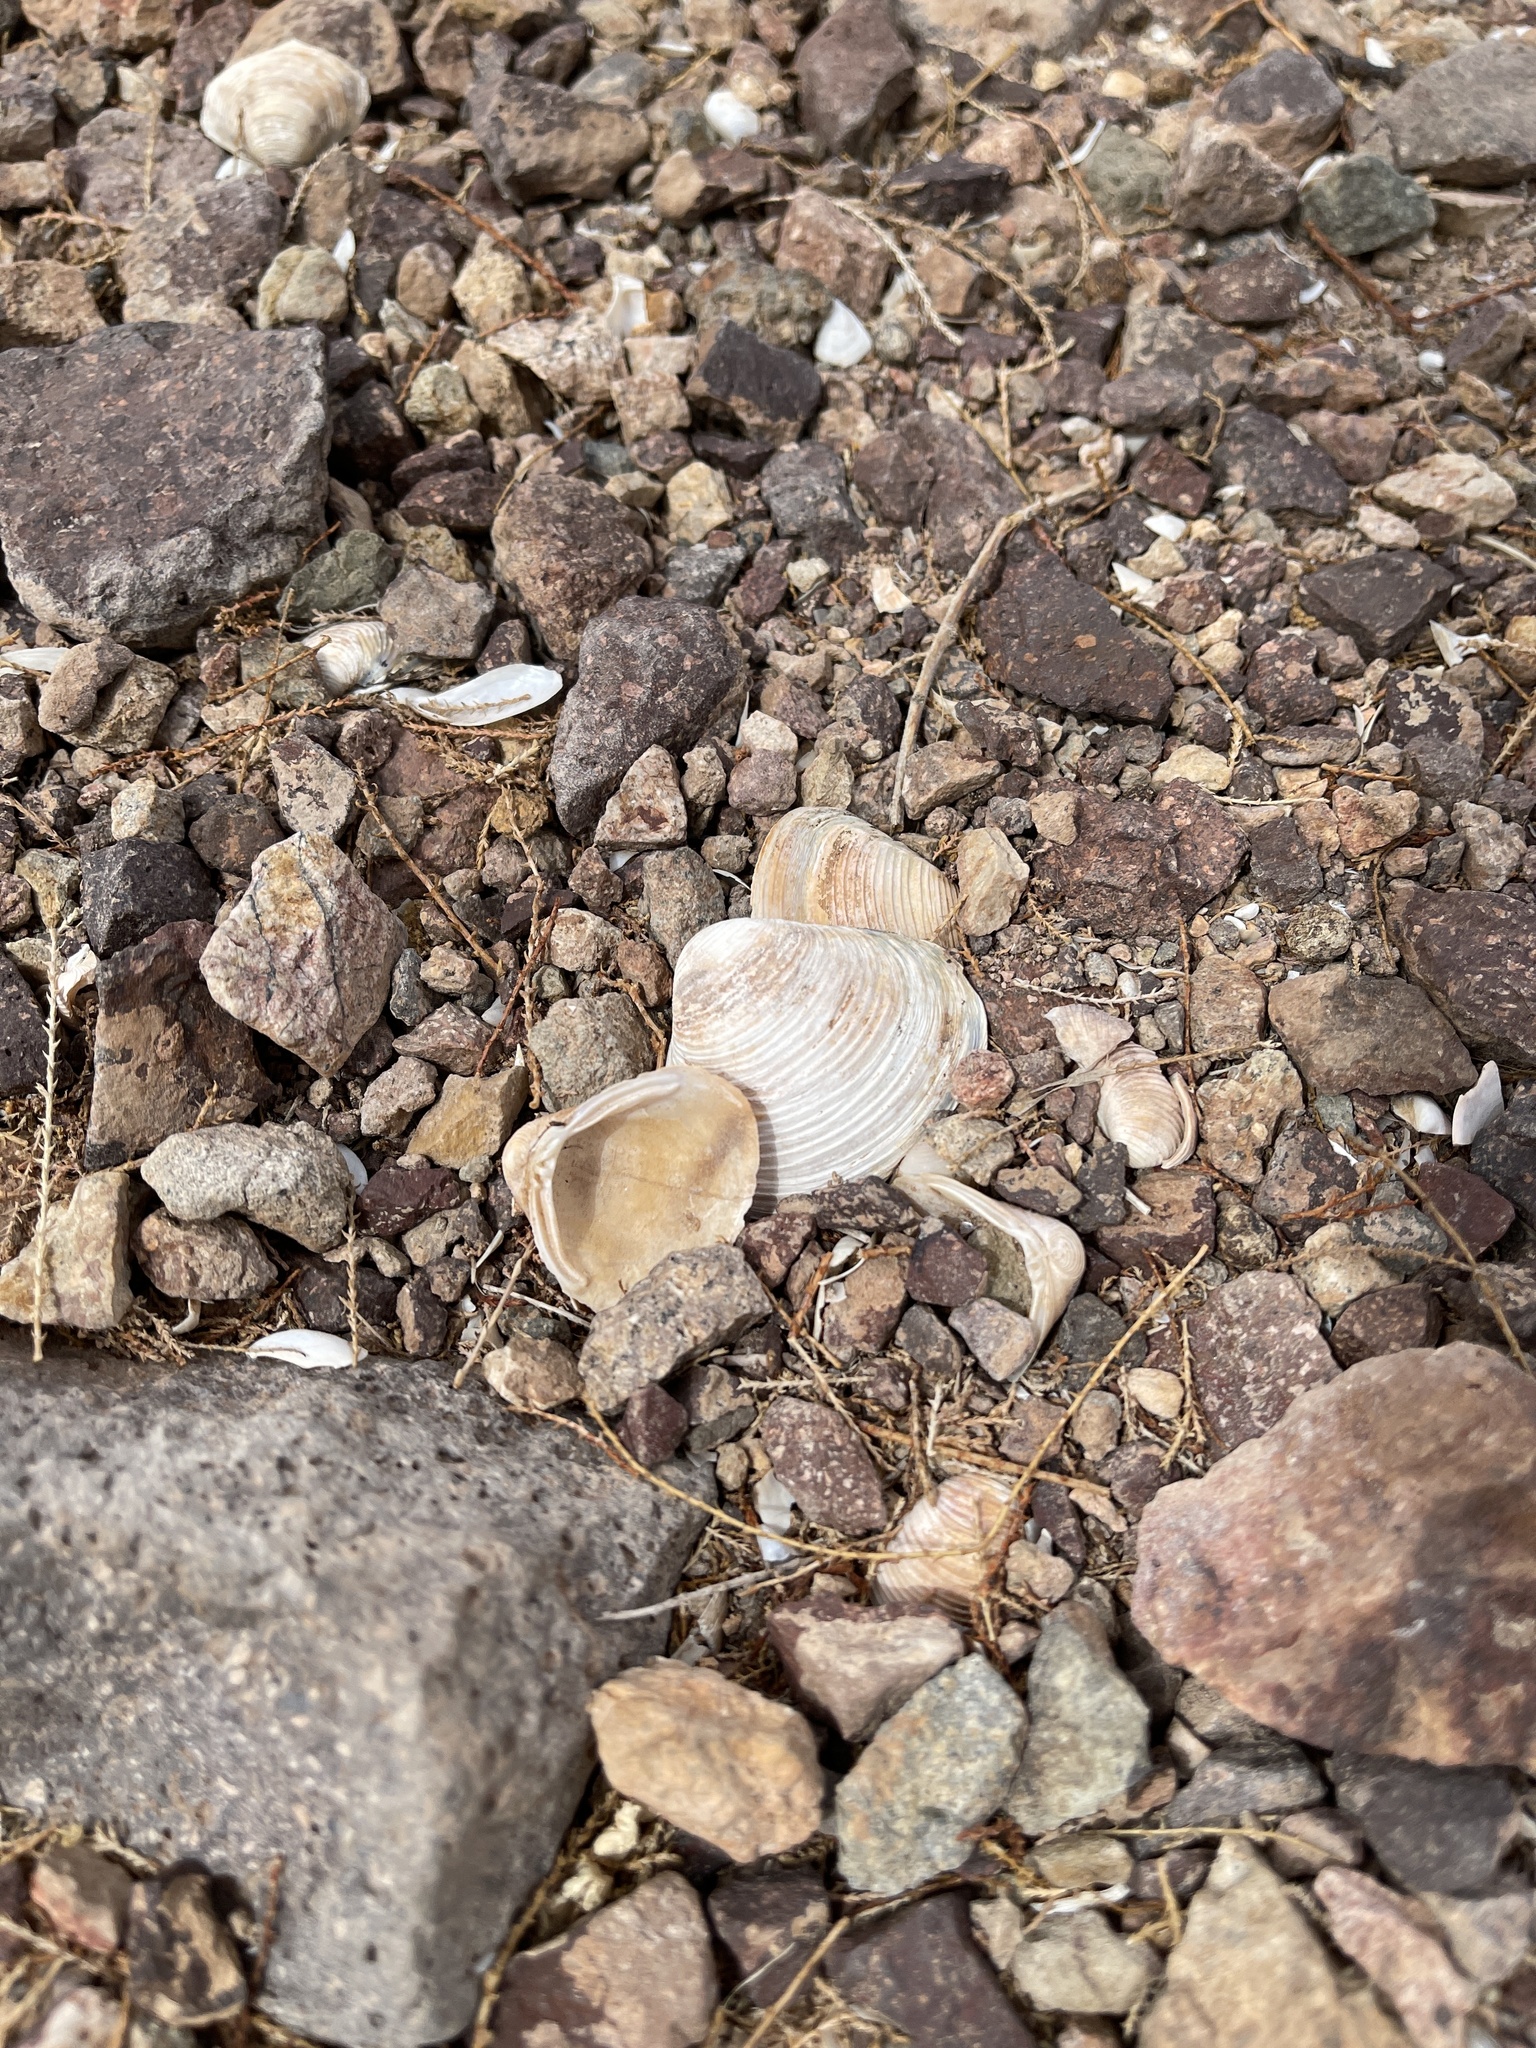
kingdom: Animalia
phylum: Mollusca
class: Bivalvia
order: Venerida
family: Cyrenidae
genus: Corbicula
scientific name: Corbicula fluminea
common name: Asian clam
